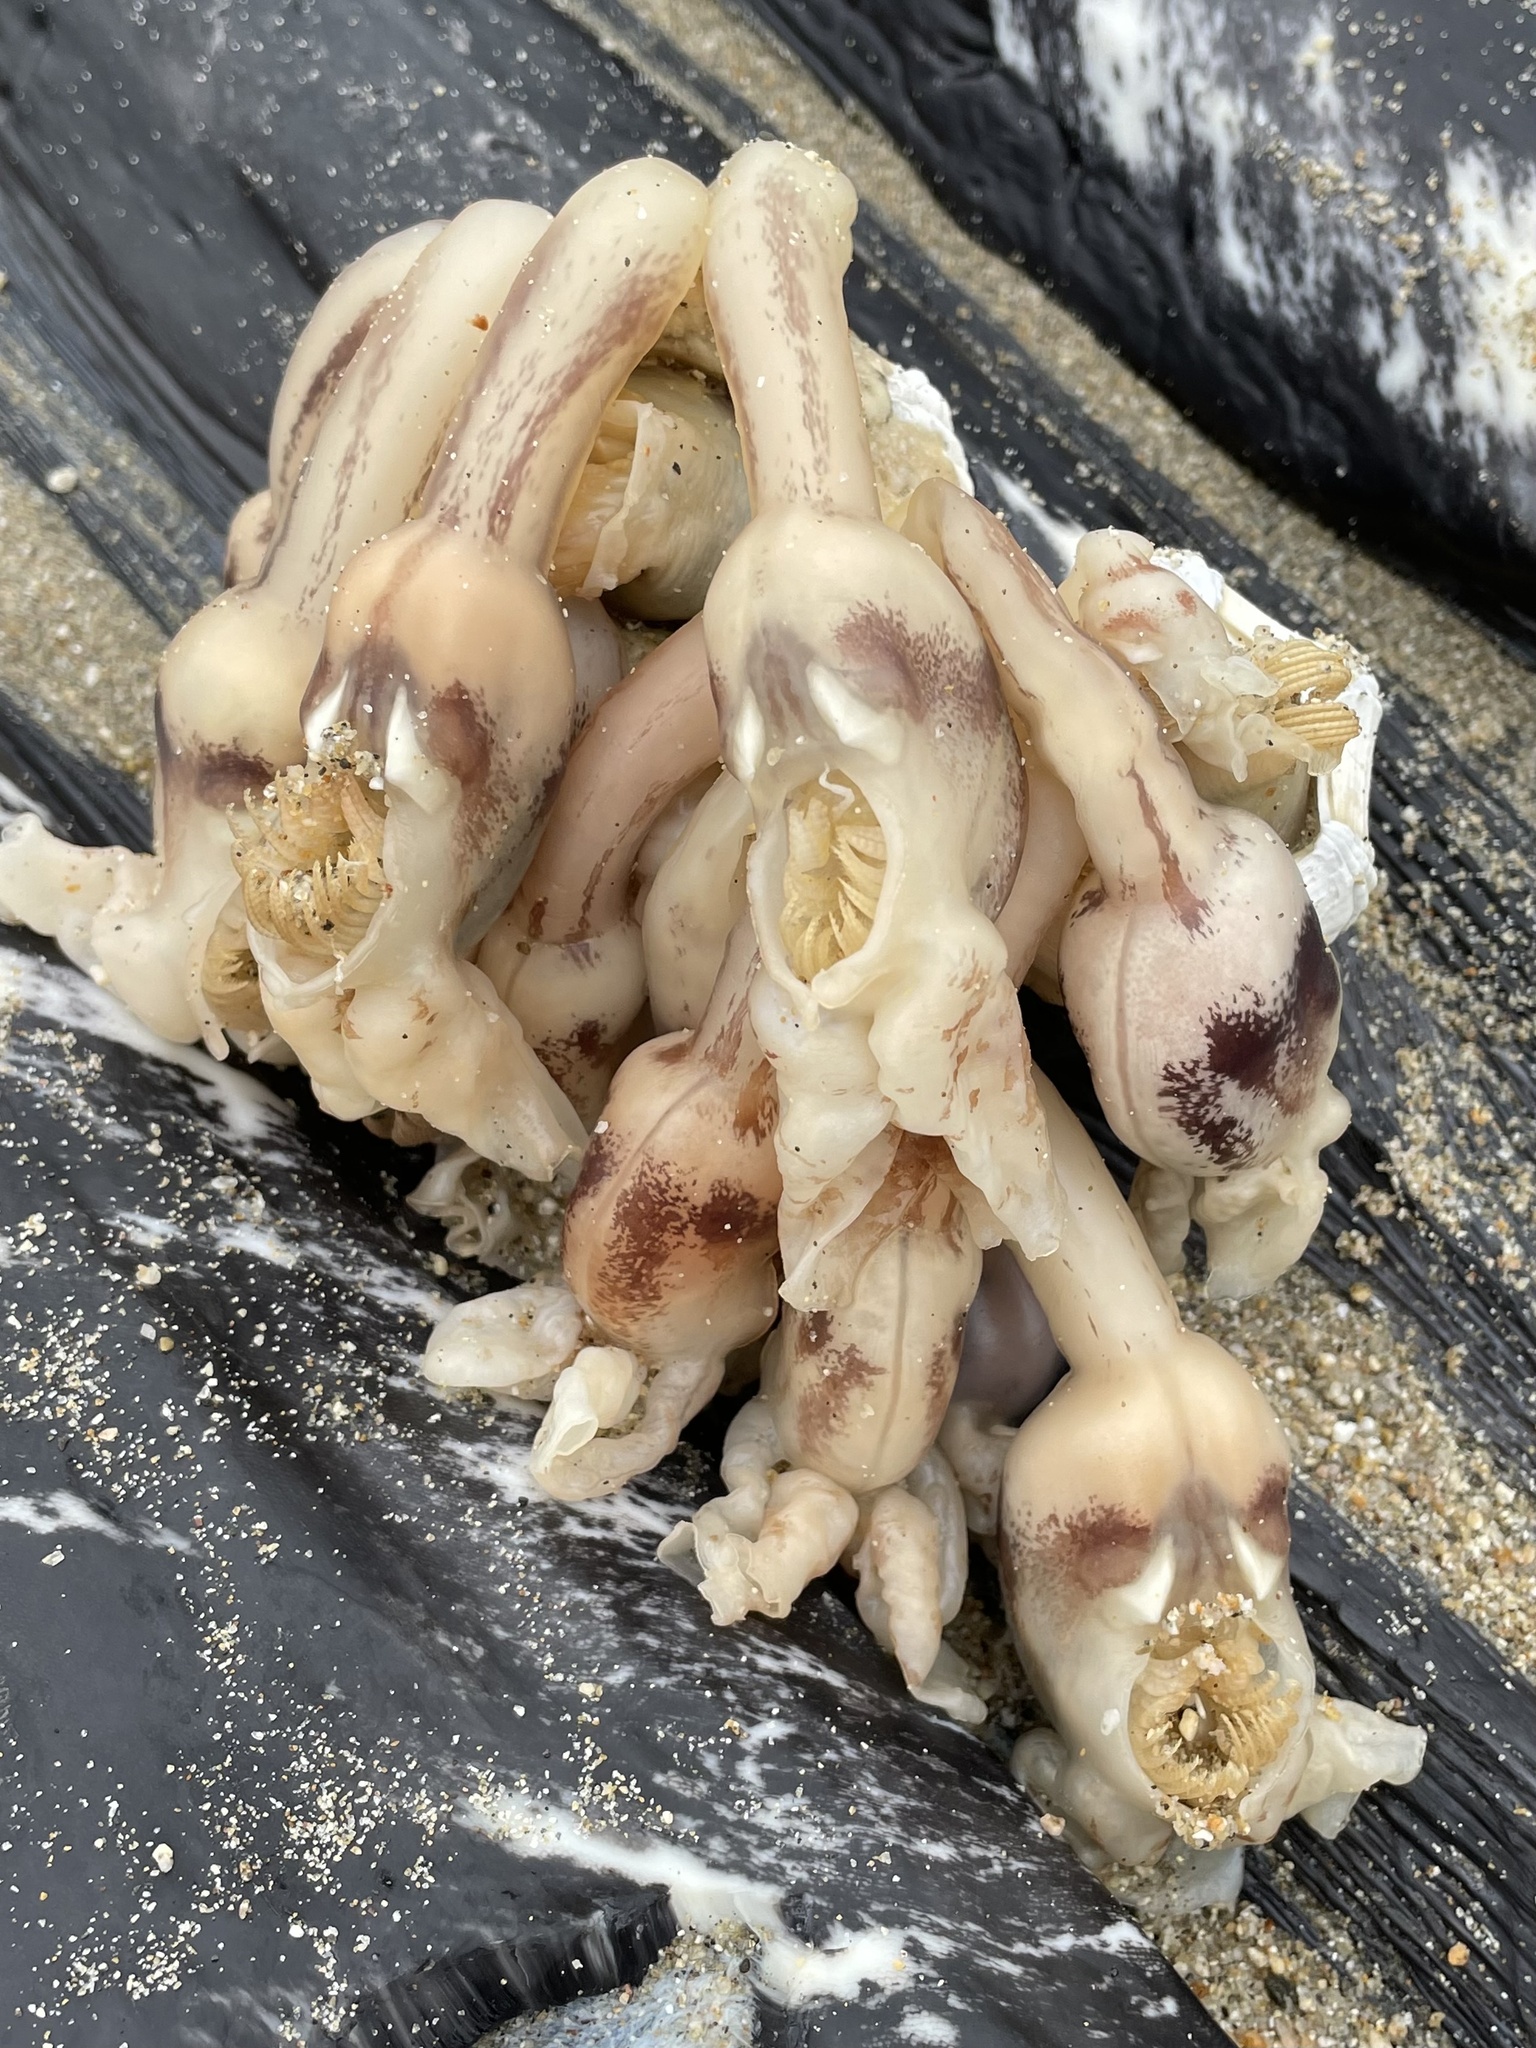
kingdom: Animalia
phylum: Arthropoda
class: Maxillopoda
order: Pedunculata
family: Lepadidae
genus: Conchoderma
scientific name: Conchoderma auritum
